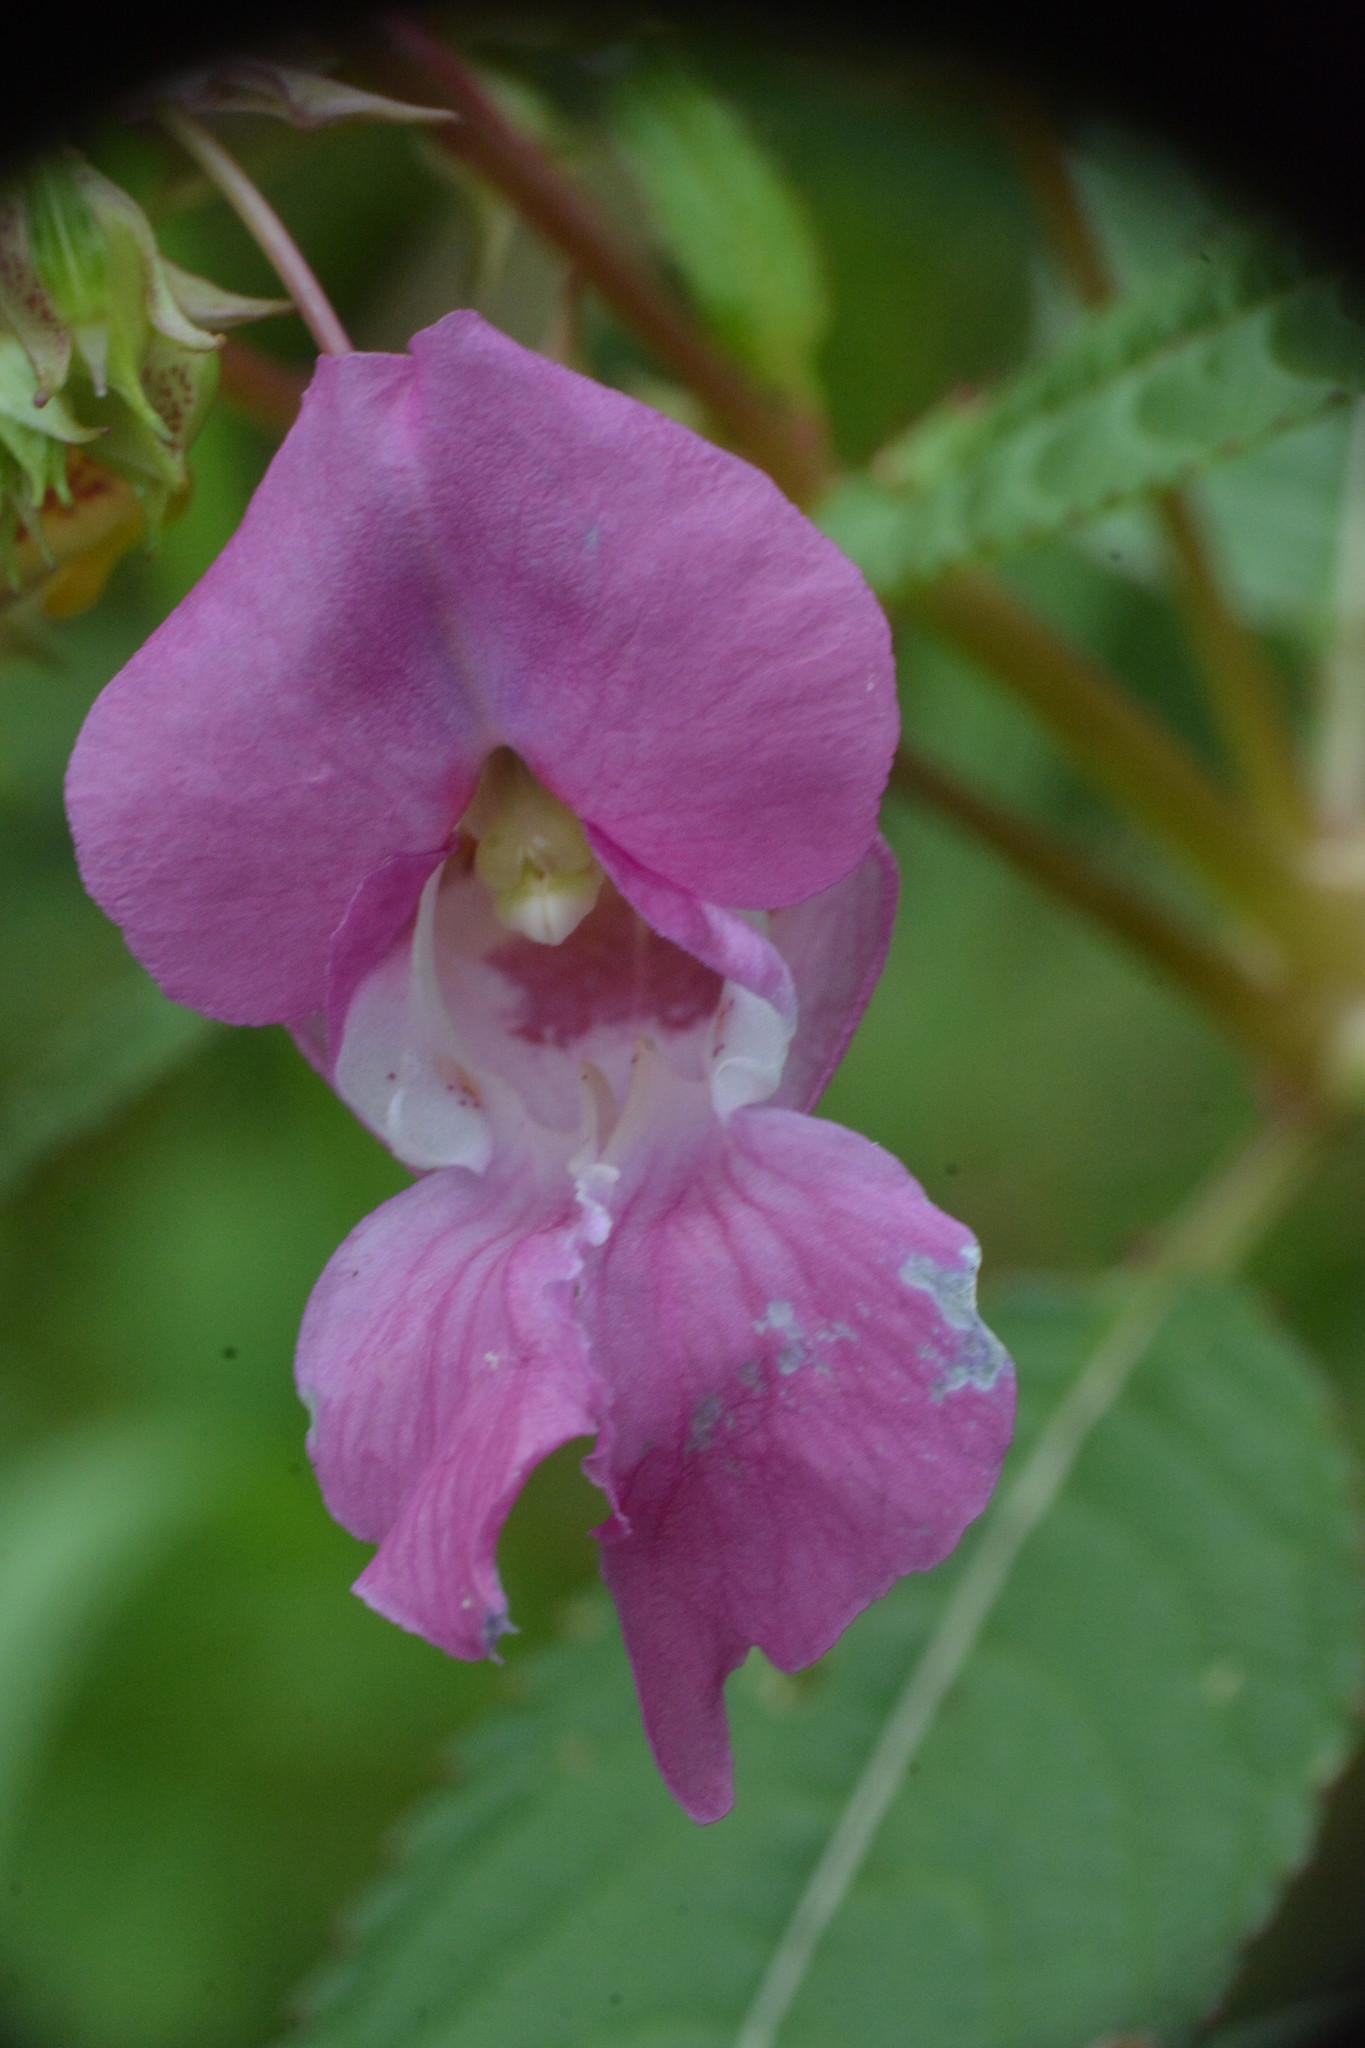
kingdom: Plantae
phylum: Tracheophyta
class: Magnoliopsida
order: Ericales
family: Balsaminaceae
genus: Impatiens
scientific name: Impatiens glandulifera
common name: Himalayan balsam
